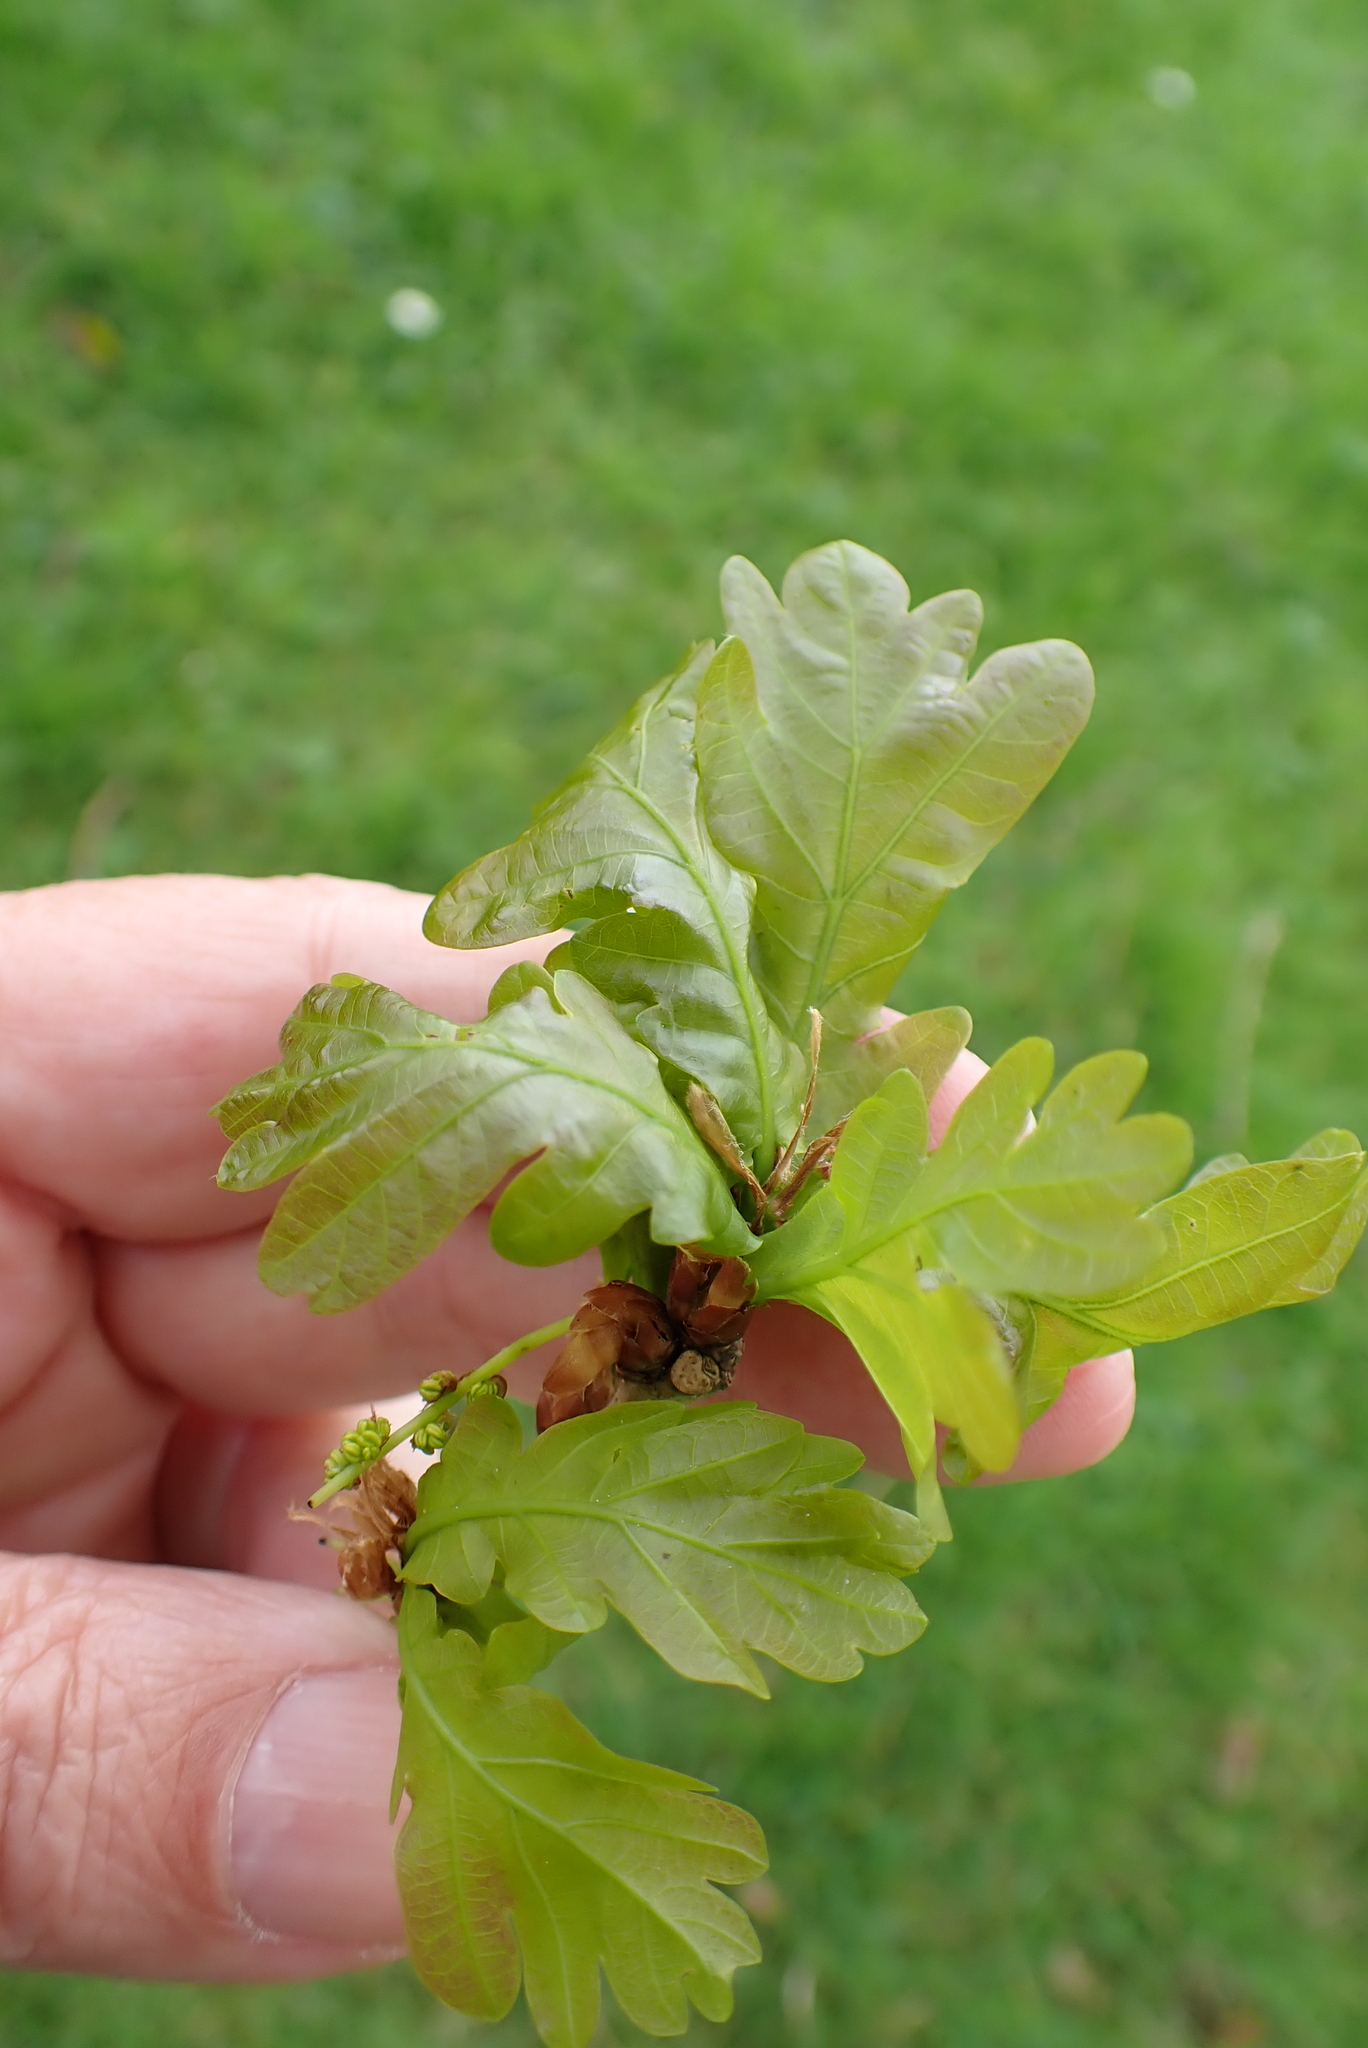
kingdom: Plantae
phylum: Tracheophyta
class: Magnoliopsida
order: Fagales
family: Fagaceae
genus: Quercus
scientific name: Quercus robur
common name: Pedunculate oak
